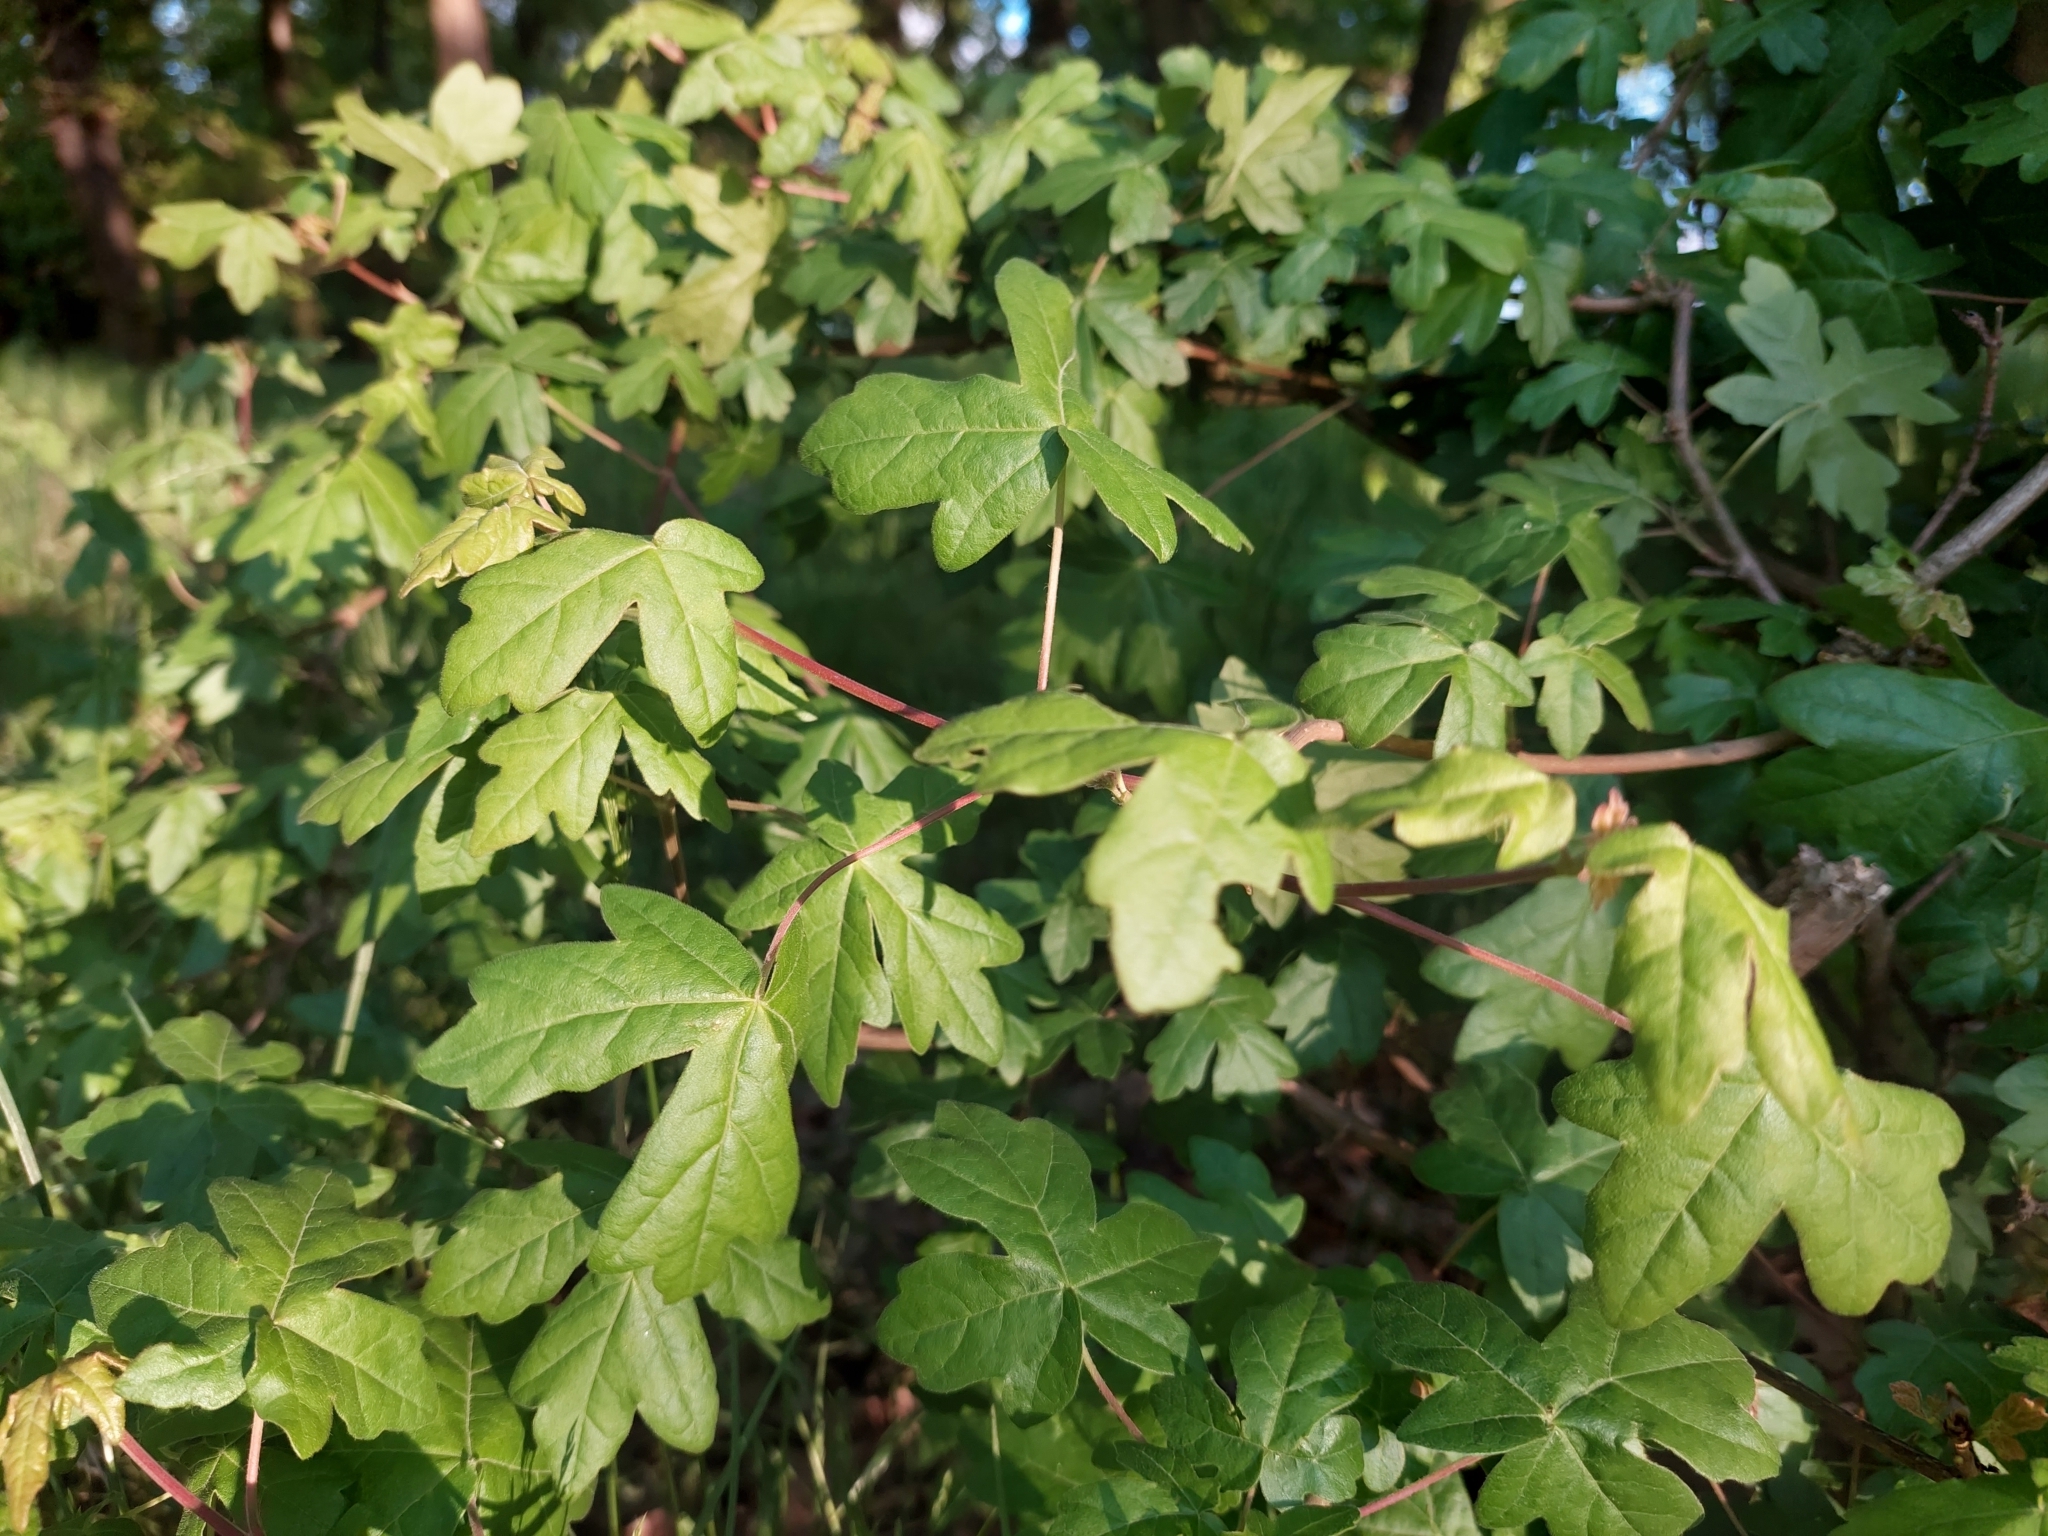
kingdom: Plantae
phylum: Tracheophyta
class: Magnoliopsida
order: Sapindales
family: Sapindaceae
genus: Acer
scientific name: Acer campestre
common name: Field maple
